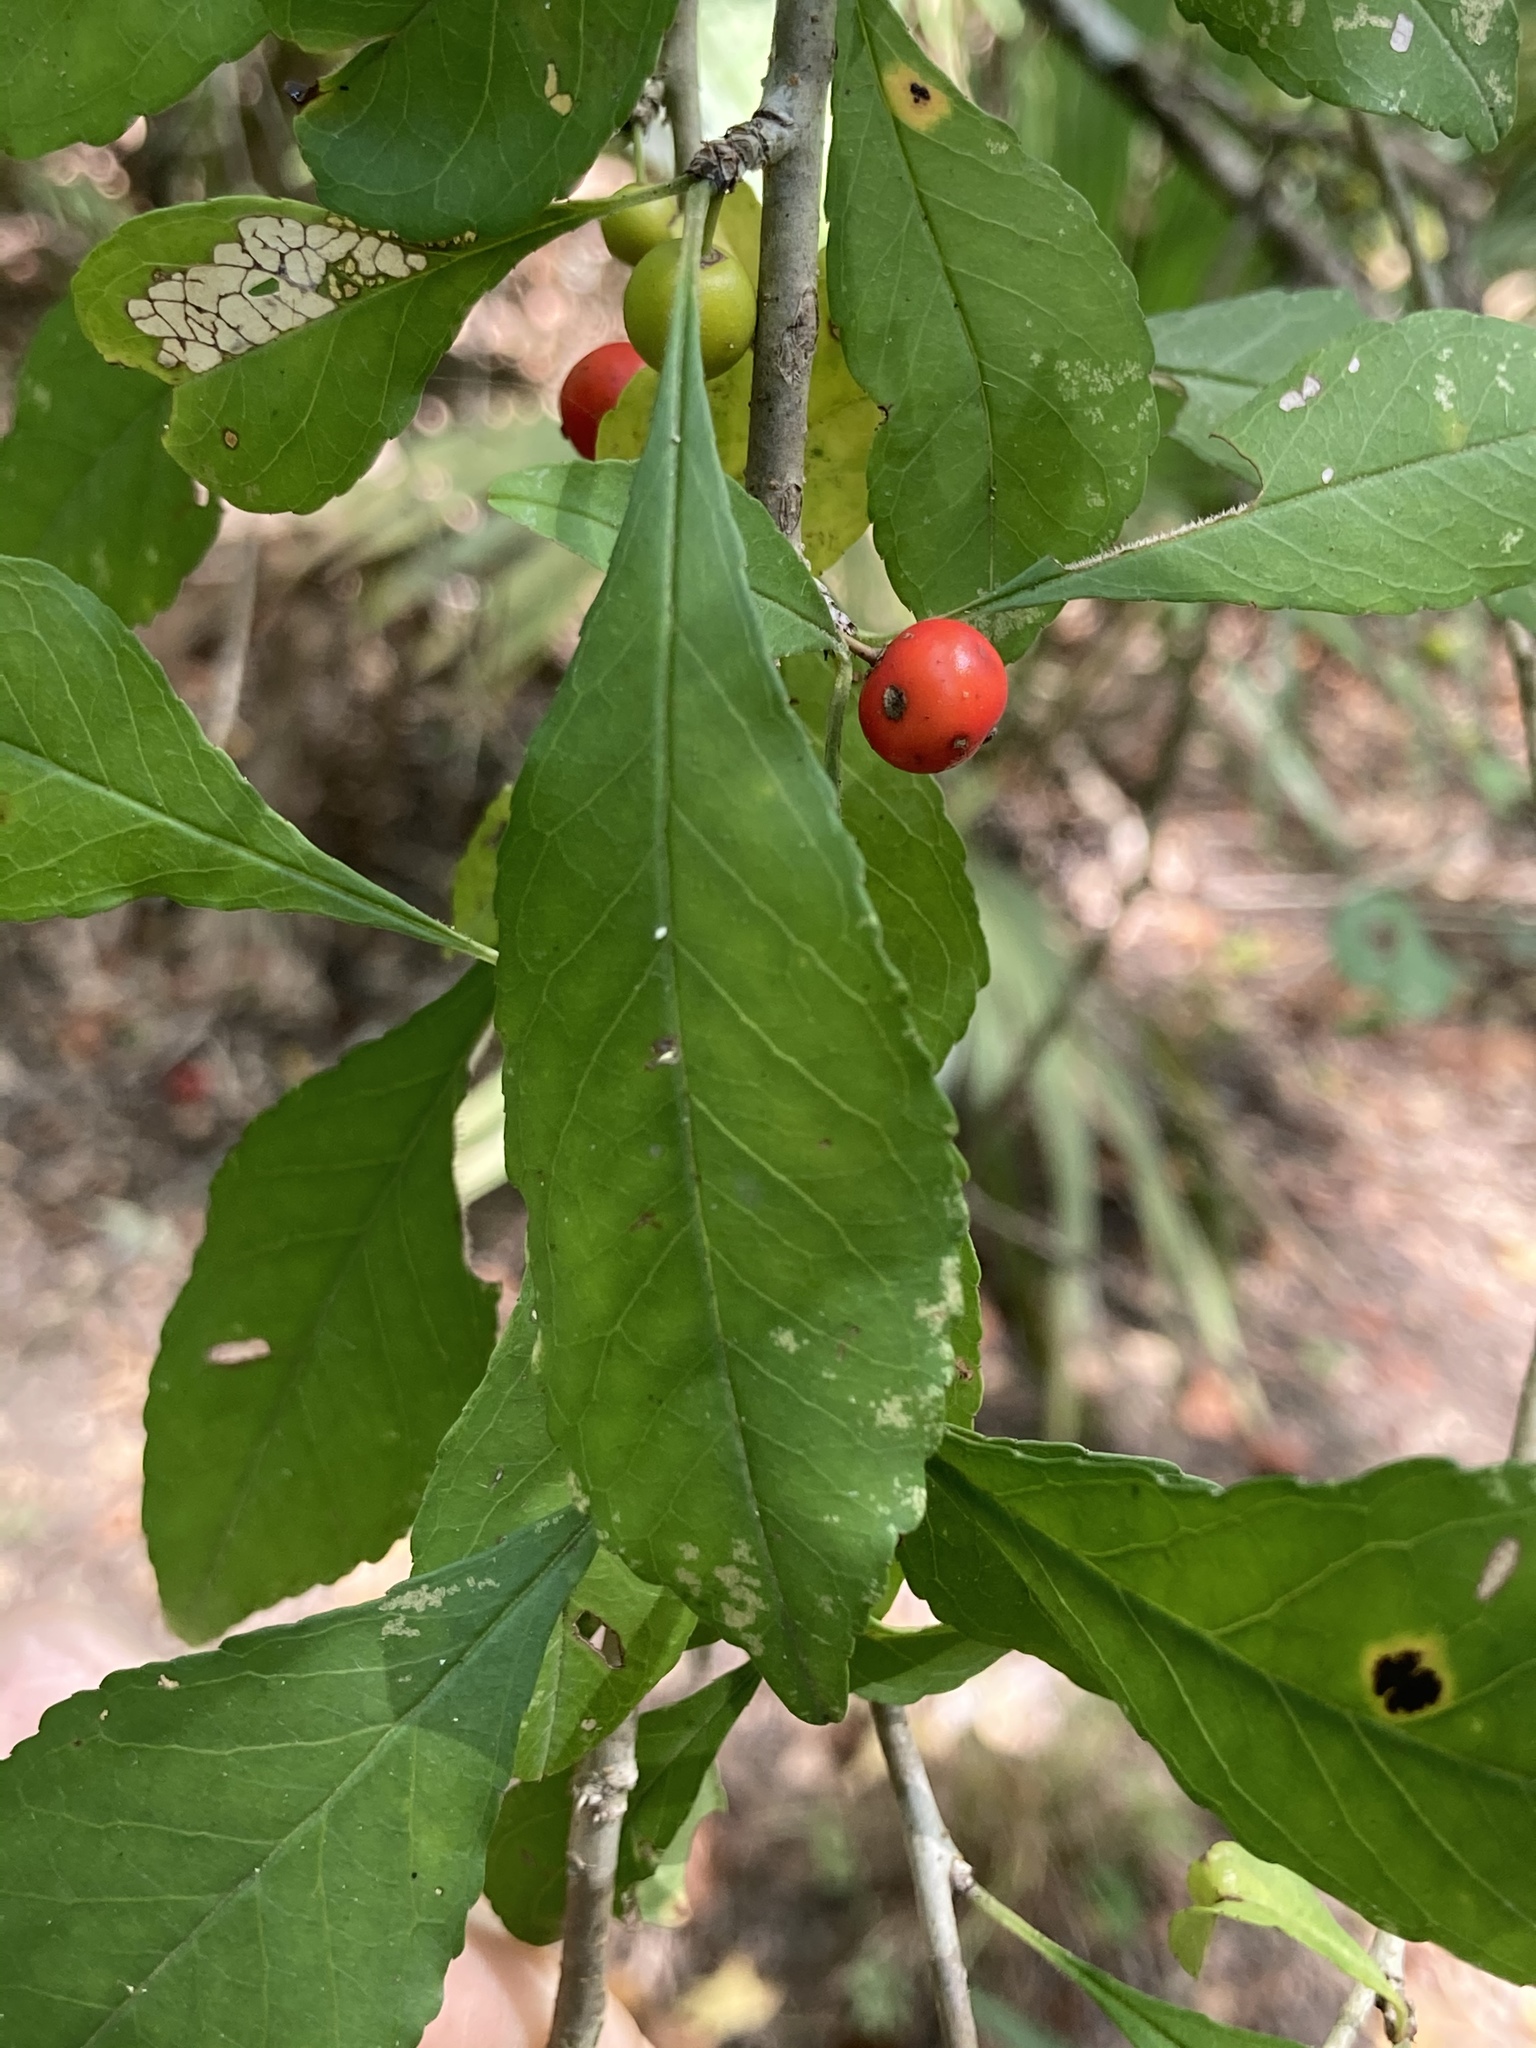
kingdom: Plantae
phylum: Tracheophyta
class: Magnoliopsida
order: Aquifoliales
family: Aquifoliaceae
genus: Ilex
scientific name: Ilex decidua
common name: Possum-haw
